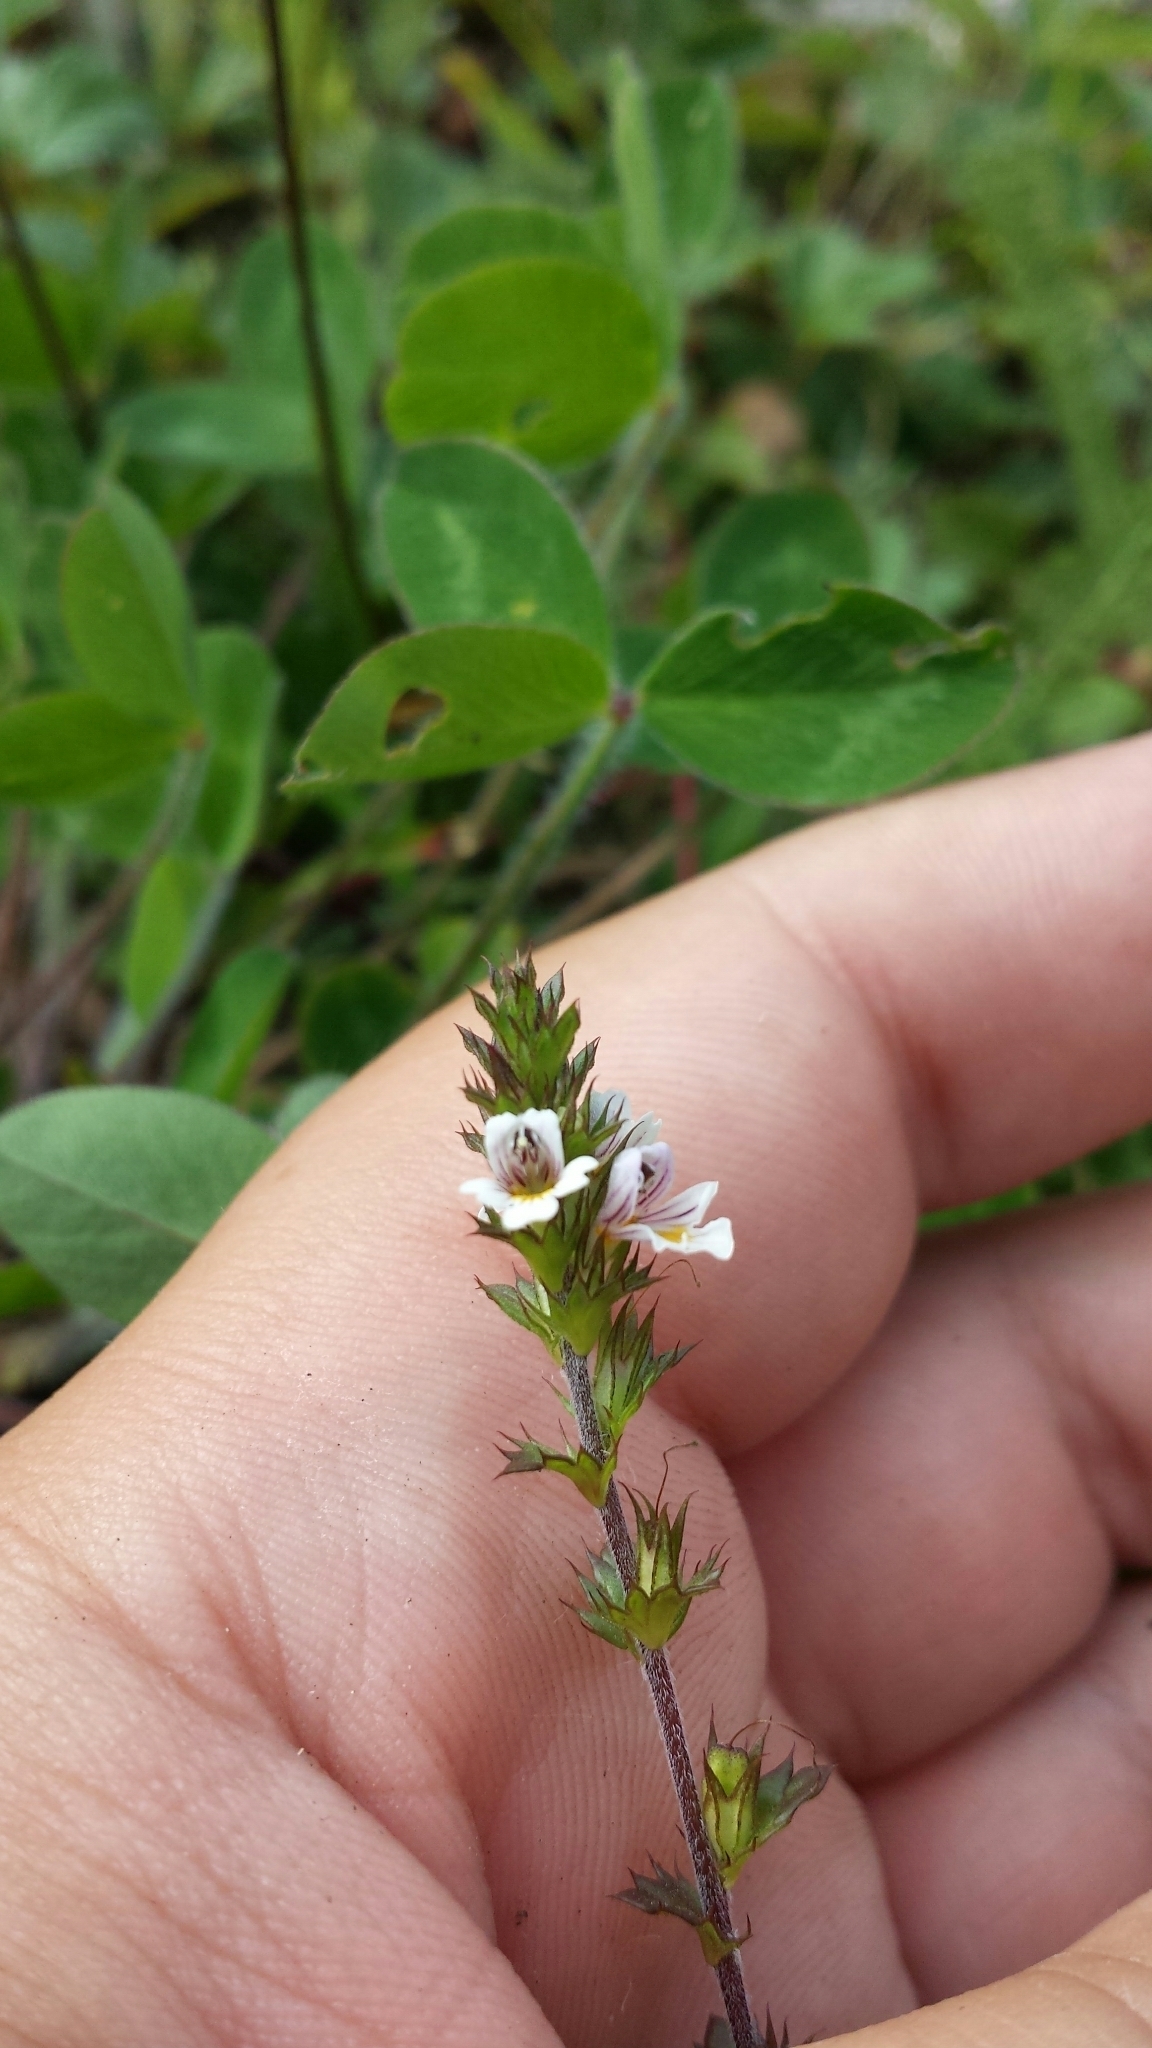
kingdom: Plantae
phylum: Tracheophyta
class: Magnoliopsida
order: Lamiales
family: Orobanchaceae
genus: Euphrasia
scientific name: Euphrasia nemorosa
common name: Common eyebright
